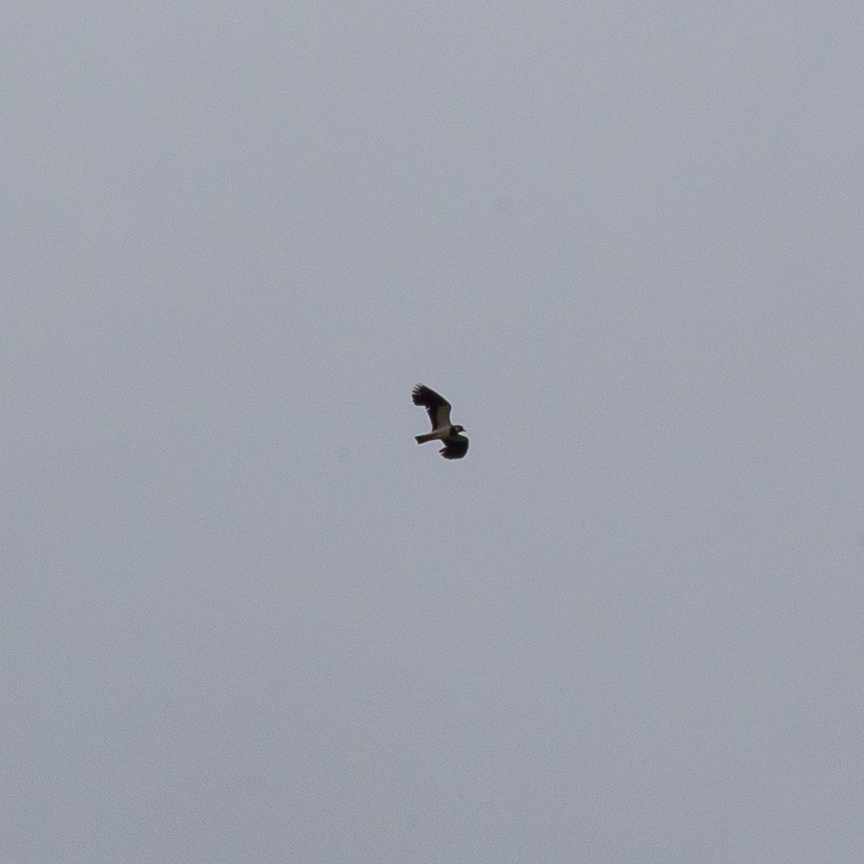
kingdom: Animalia
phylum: Chordata
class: Aves
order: Charadriiformes
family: Charadriidae
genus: Vanellus
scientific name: Vanellus vanellus
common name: Northern lapwing
